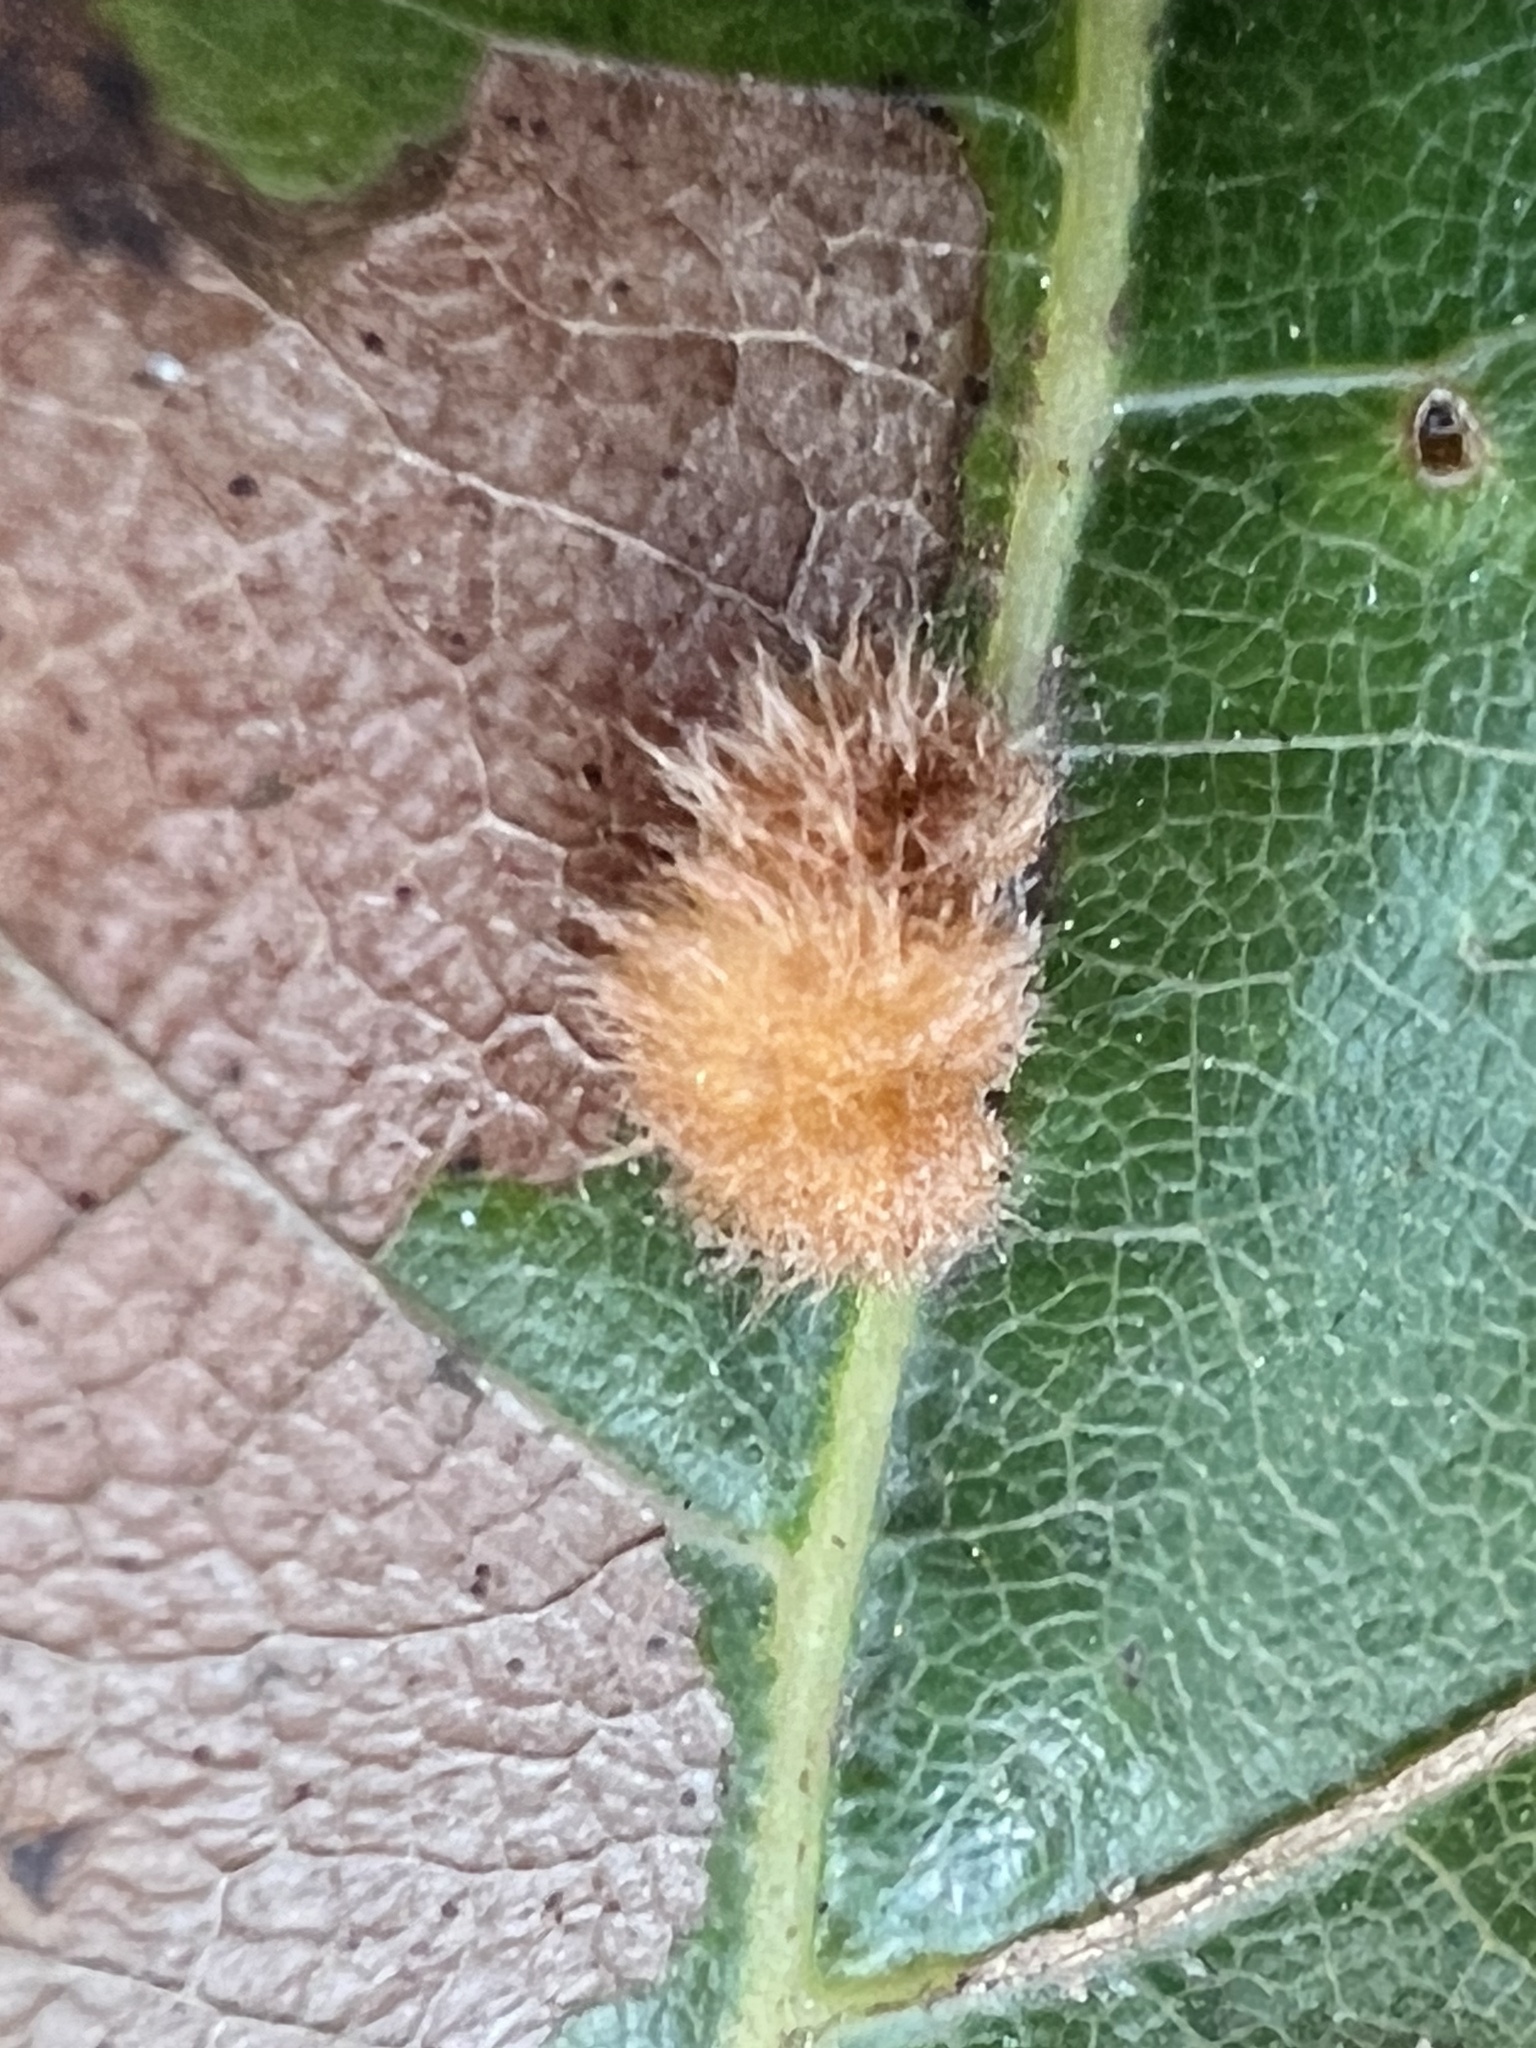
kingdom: Animalia
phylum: Arthropoda
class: Insecta
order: Hymenoptera
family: Cynipidae
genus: Callirhytis
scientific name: Callirhytis
